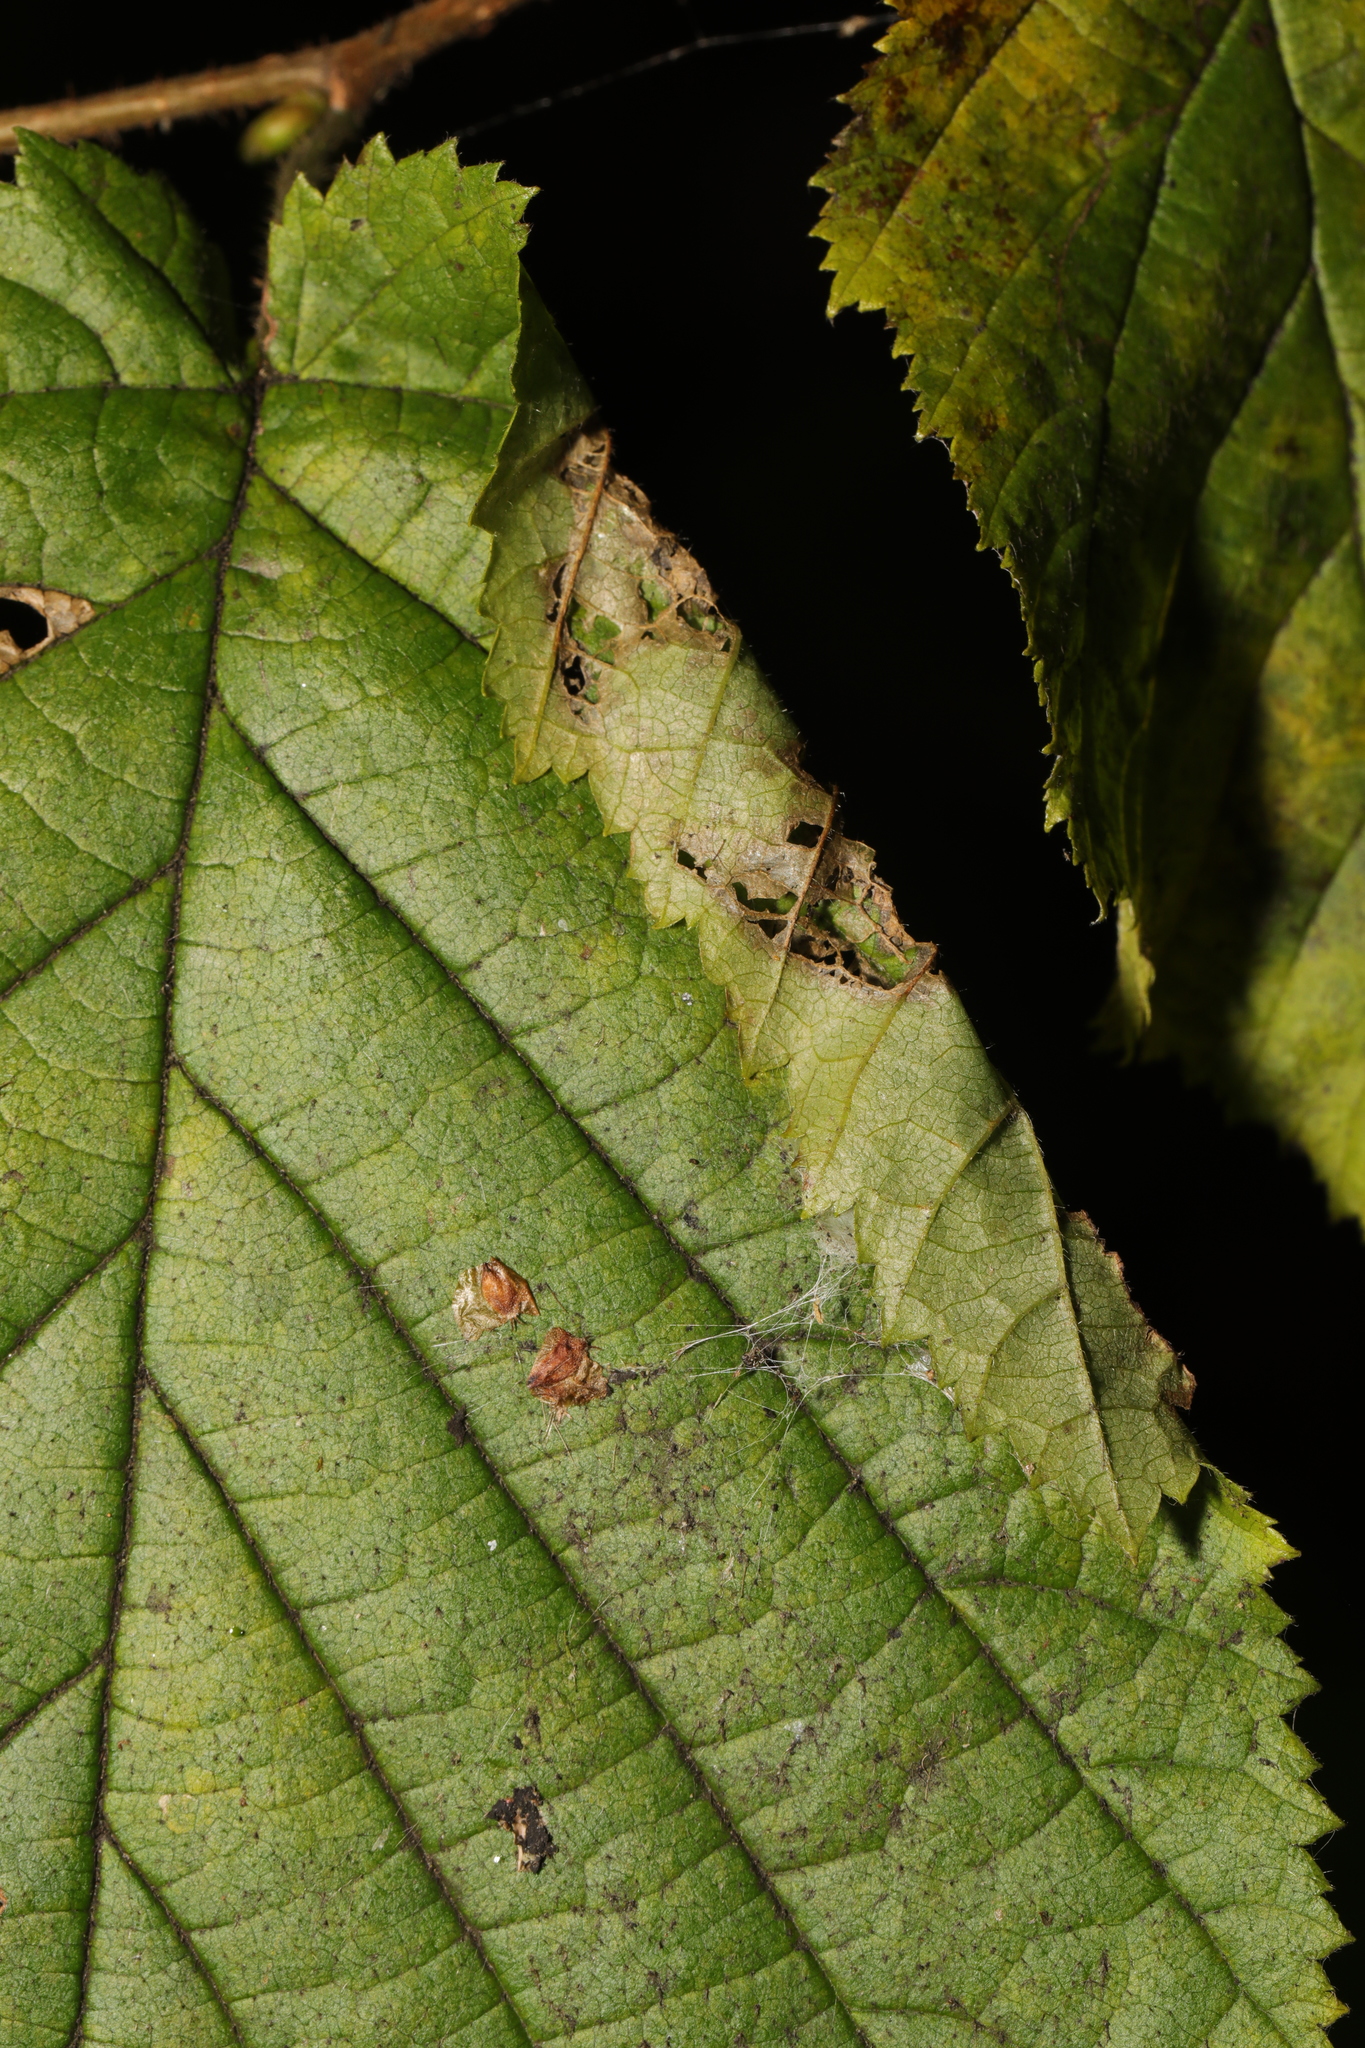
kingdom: Animalia
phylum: Arthropoda
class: Insecta
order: Lepidoptera
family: Gracillariidae
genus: Parornix
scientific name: Parornix devoniella
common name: Hazel slender
